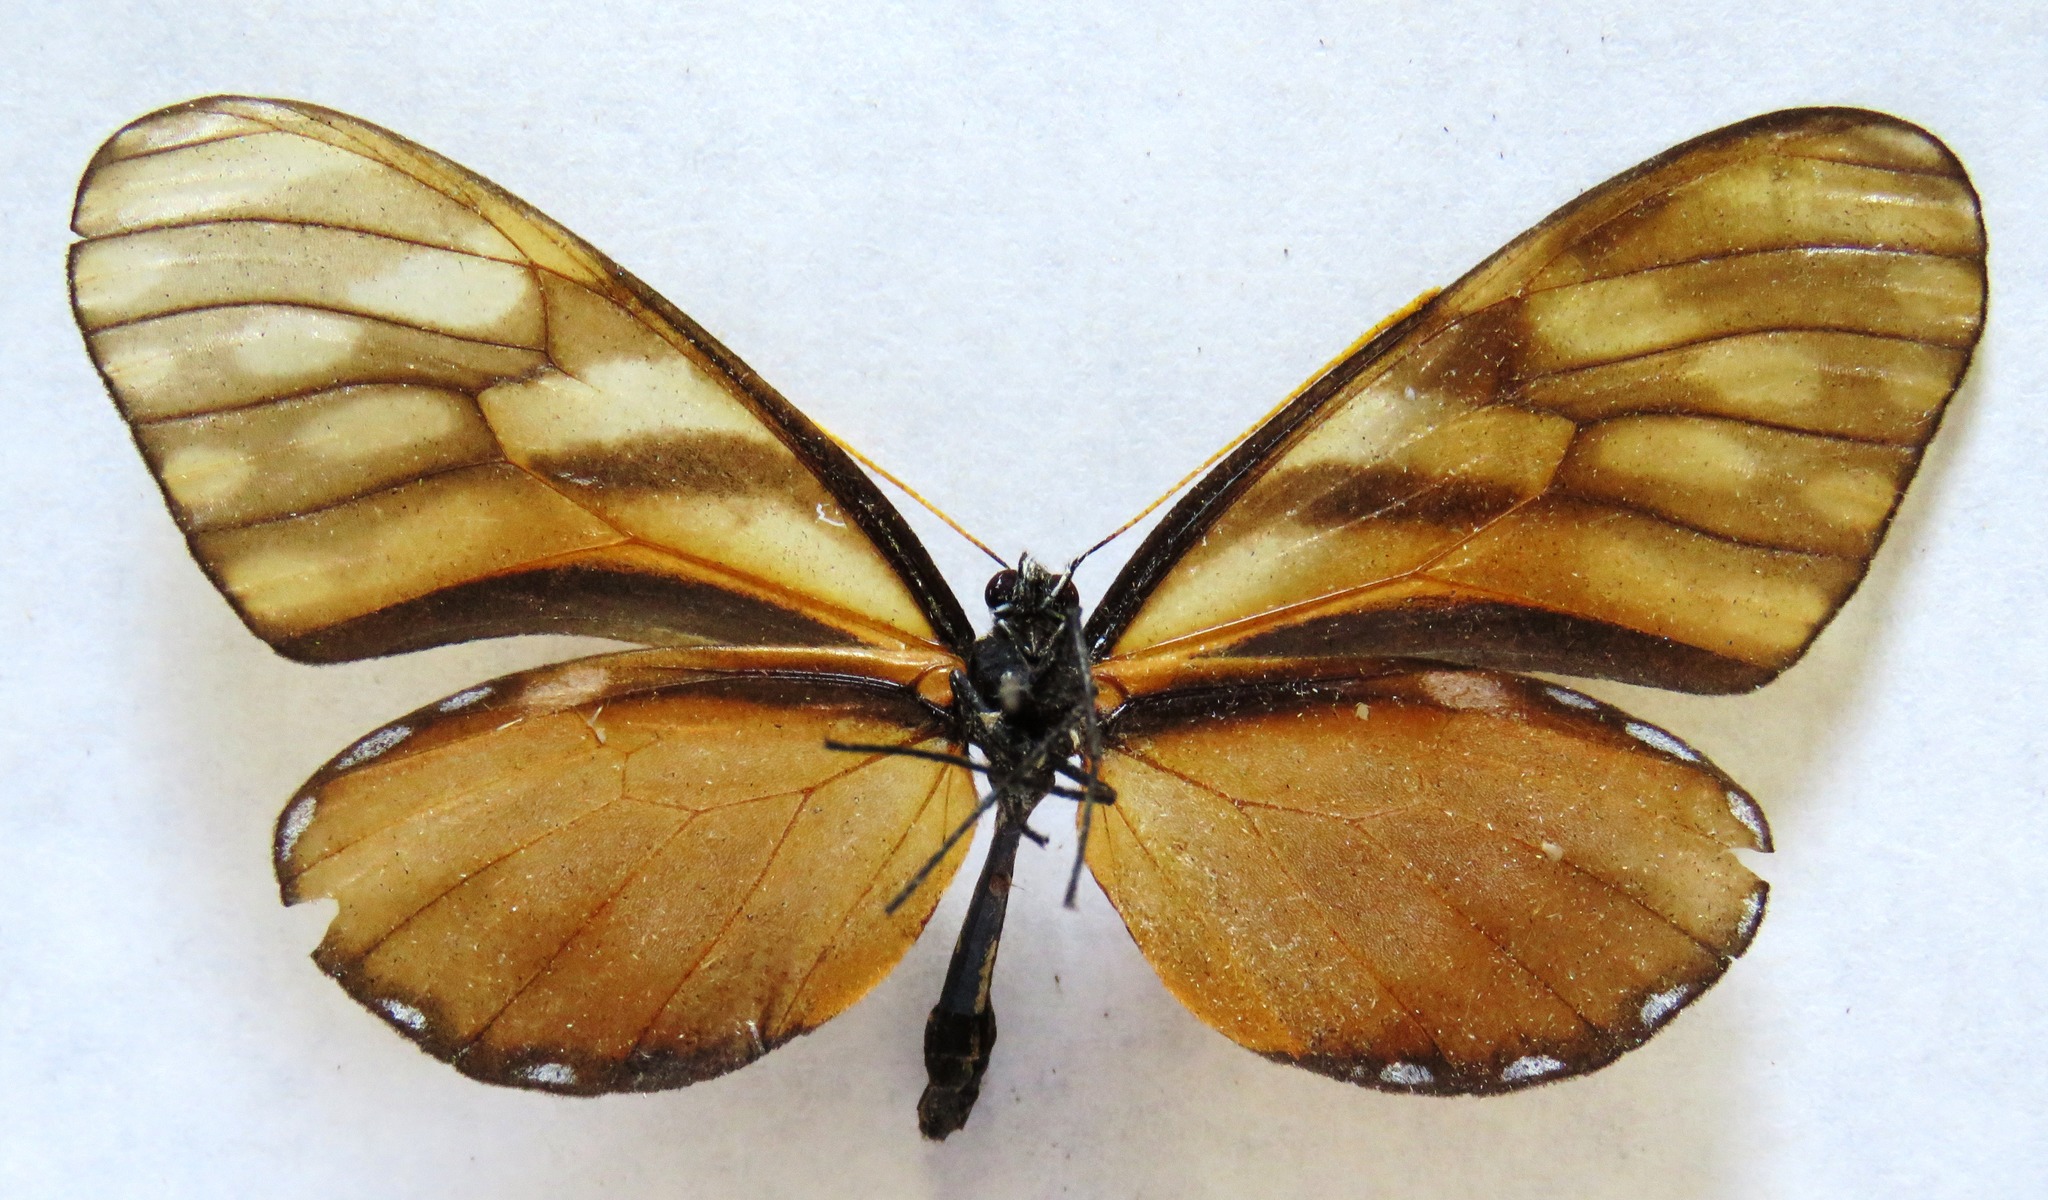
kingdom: Animalia
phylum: Arthropoda
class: Insecta
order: Lepidoptera
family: Nymphalidae
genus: Dircenna
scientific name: Dircenna klugii
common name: Klug’s clearwing
